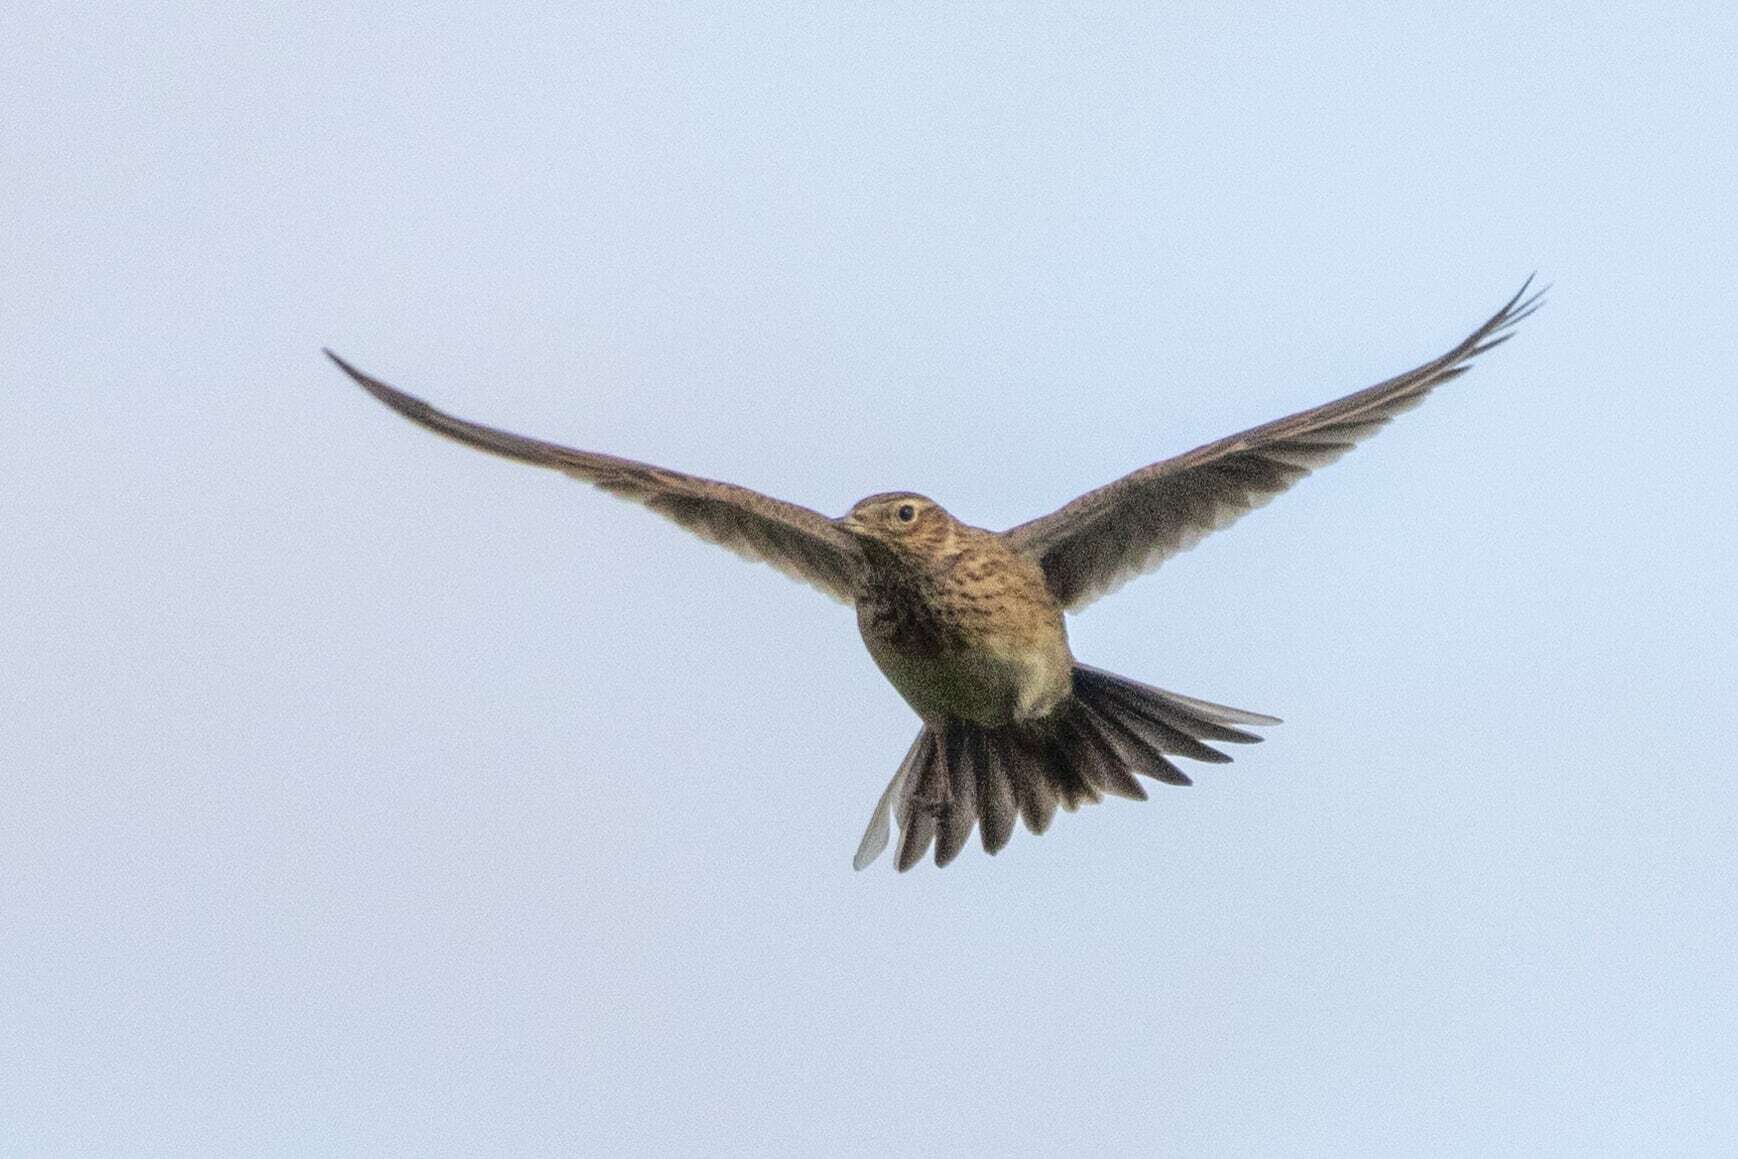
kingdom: Animalia
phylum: Chordata
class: Aves
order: Passeriformes
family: Alaudidae
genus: Alauda
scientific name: Alauda arvensis
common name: Eurasian skylark
